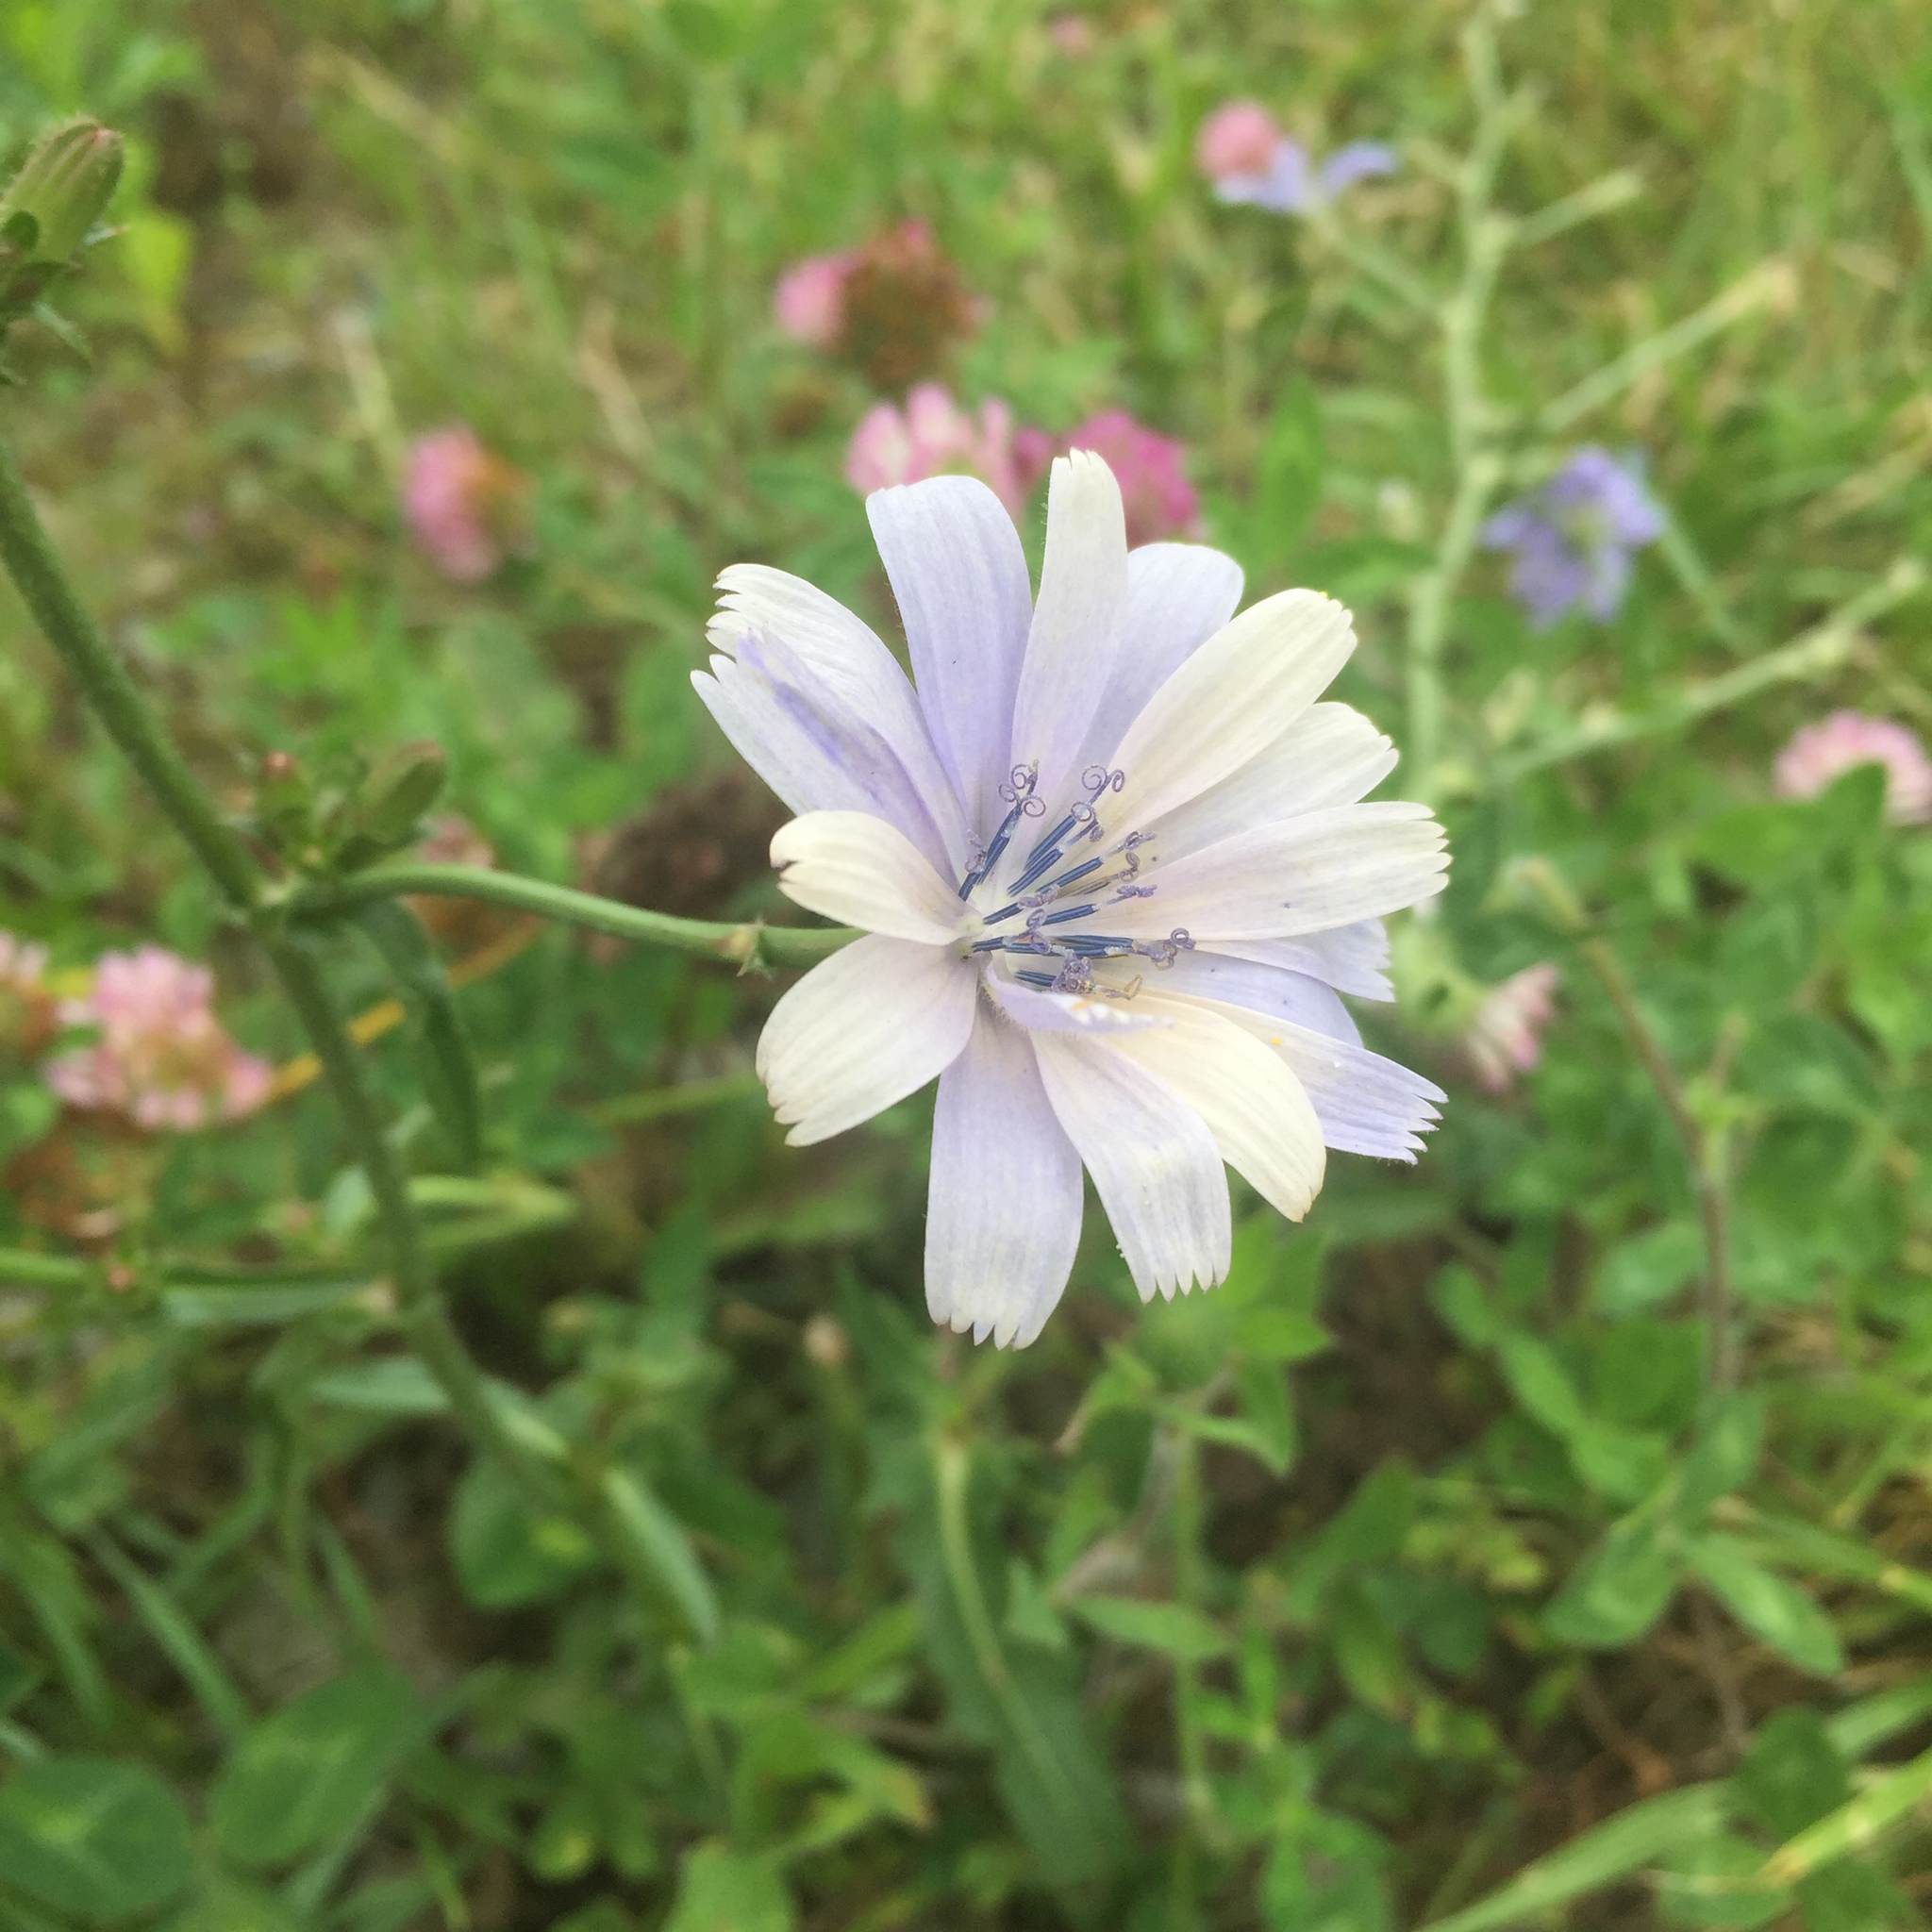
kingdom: Plantae
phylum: Tracheophyta
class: Magnoliopsida
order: Asterales
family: Asteraceae
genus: Cichorium
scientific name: Cichorium intybus
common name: Chicory
